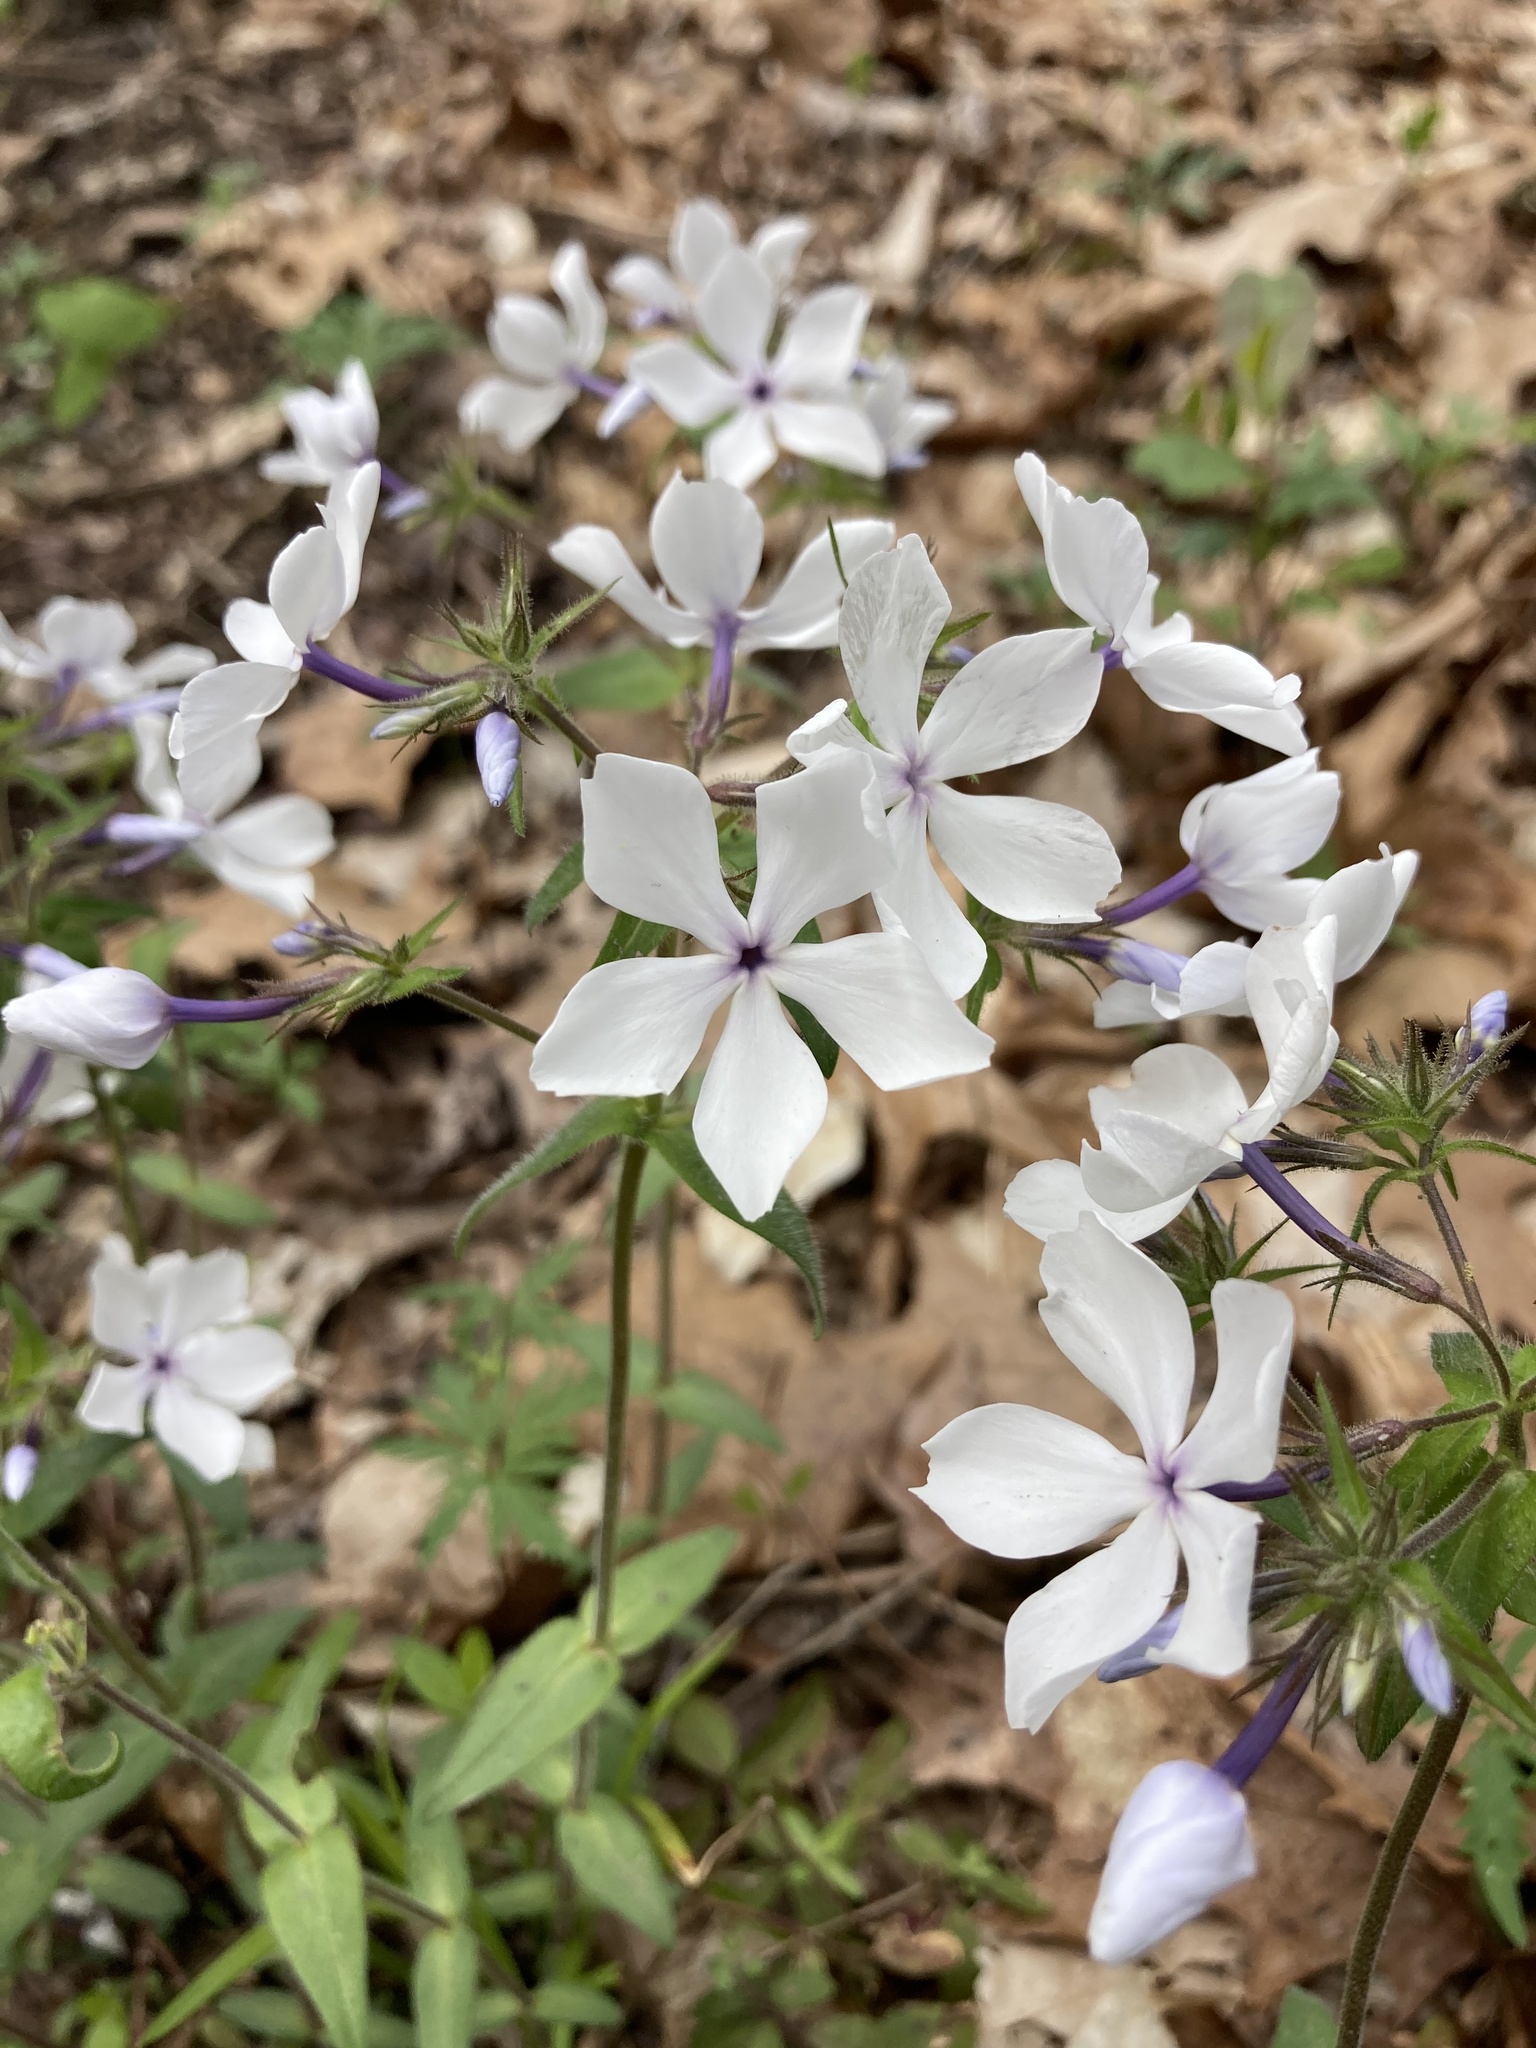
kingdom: Plantae
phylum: Tracheophyta
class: Magnoliopsida
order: Ericales
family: Polemoniaceae
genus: Phlox
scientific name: Phlox divaricata
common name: Blue phlox
